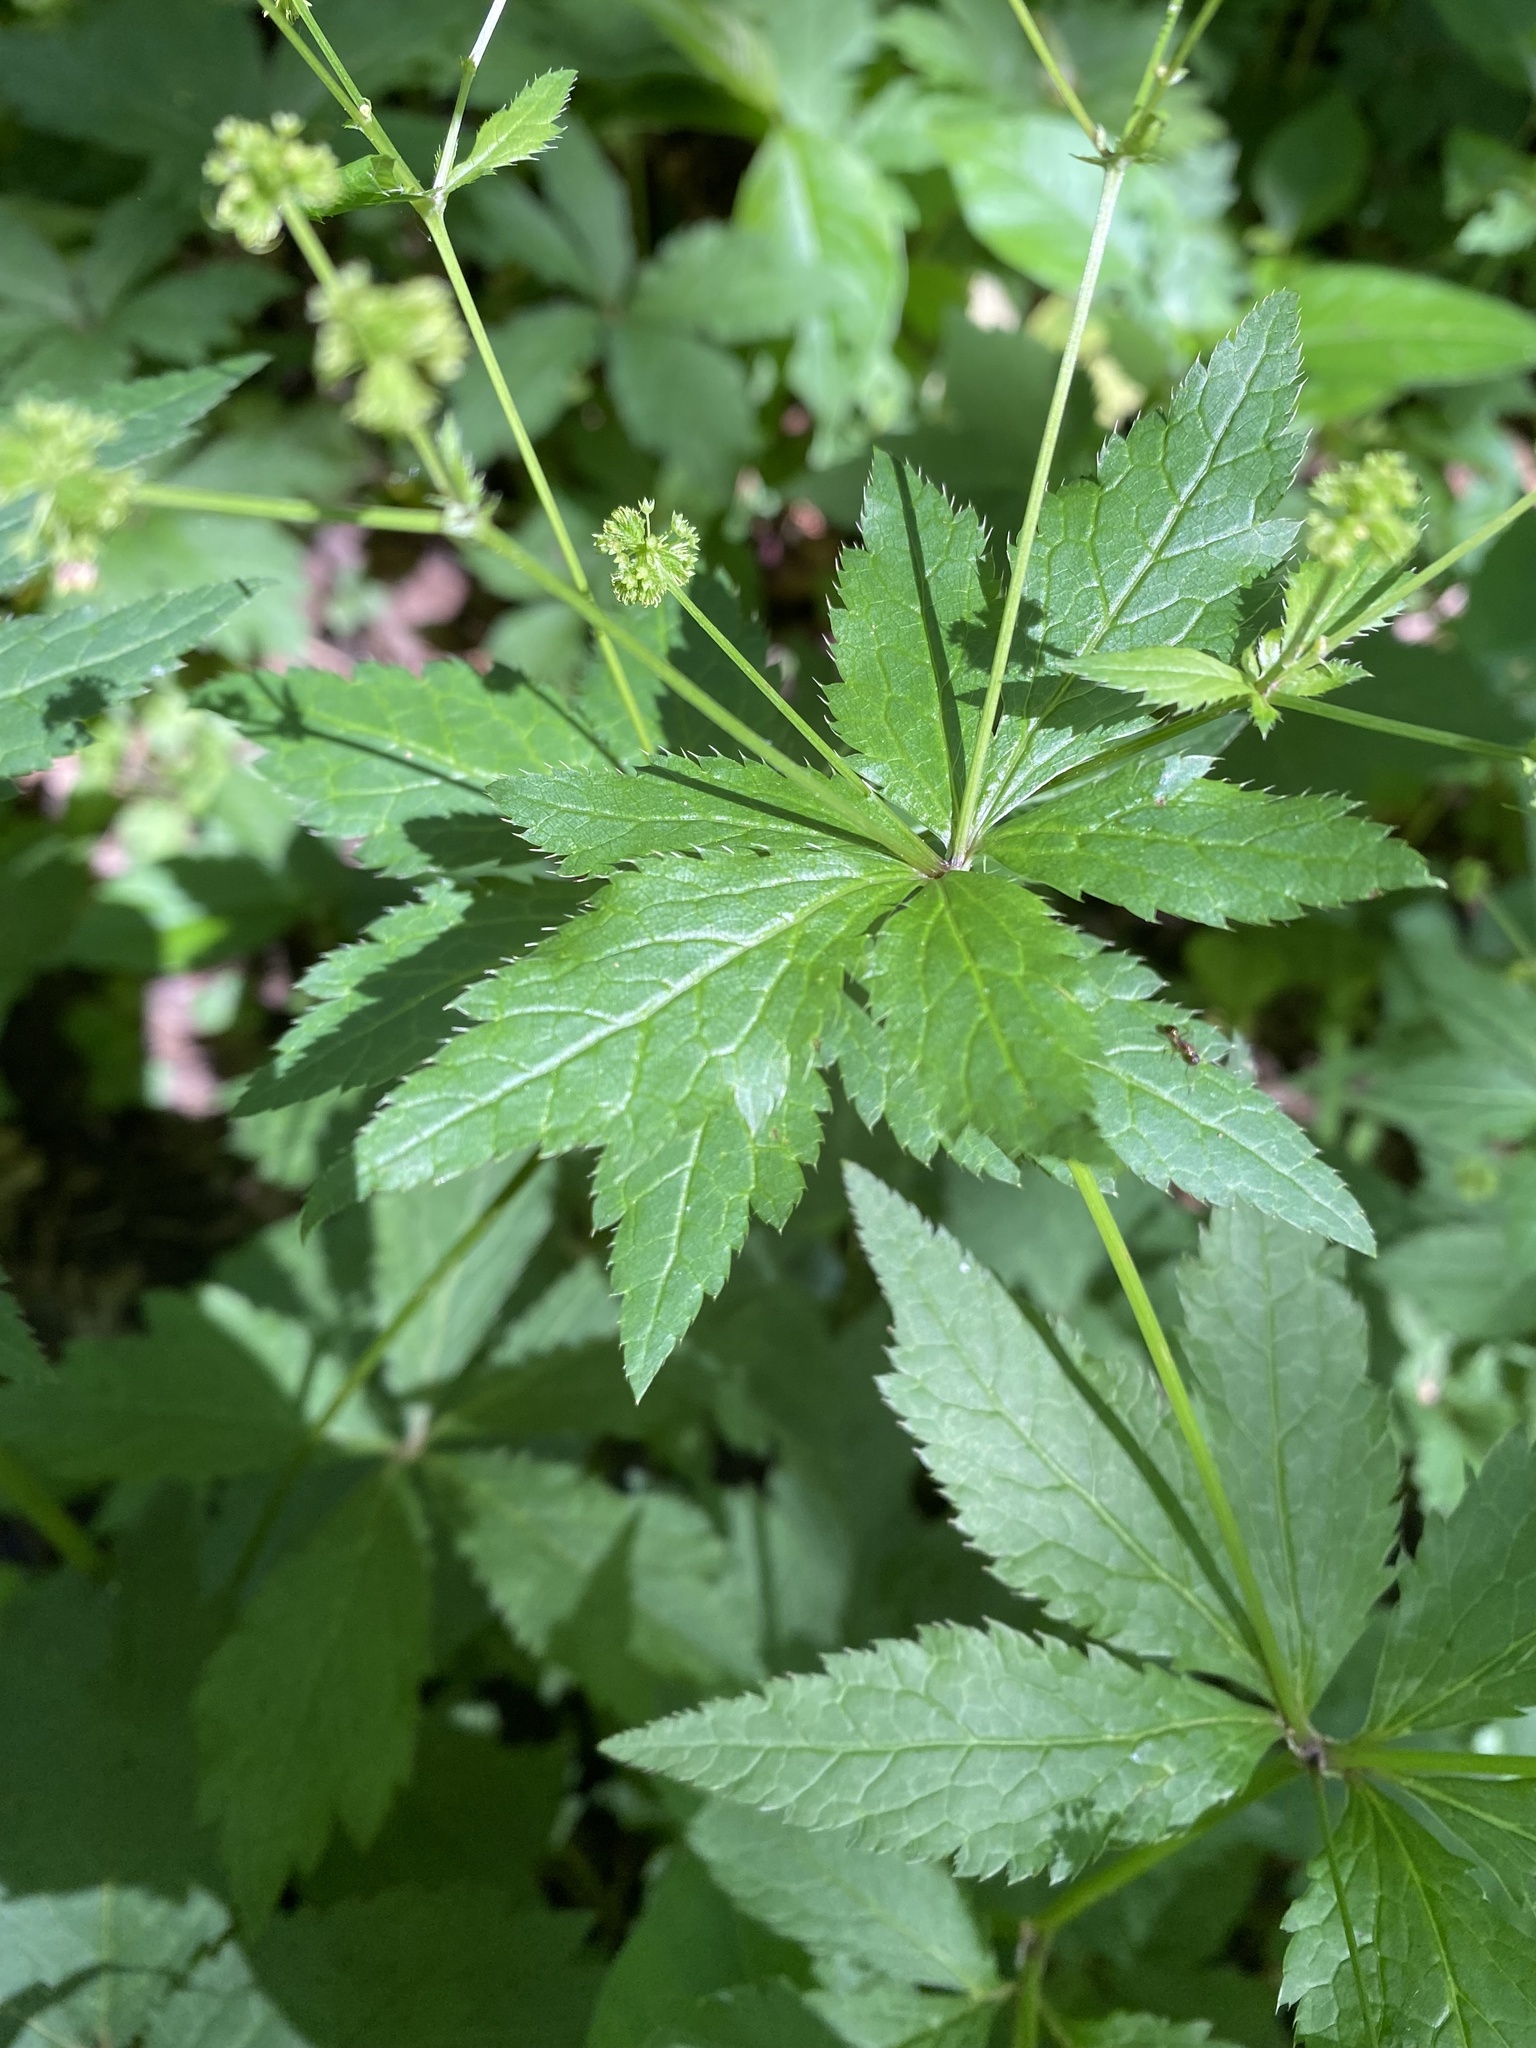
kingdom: Plantae
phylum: Tracheophyta
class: Magnoliopsida
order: Apiales
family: Apiaceae
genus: Sanicula
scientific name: Sanicula odorata
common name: Cluster sanicle
